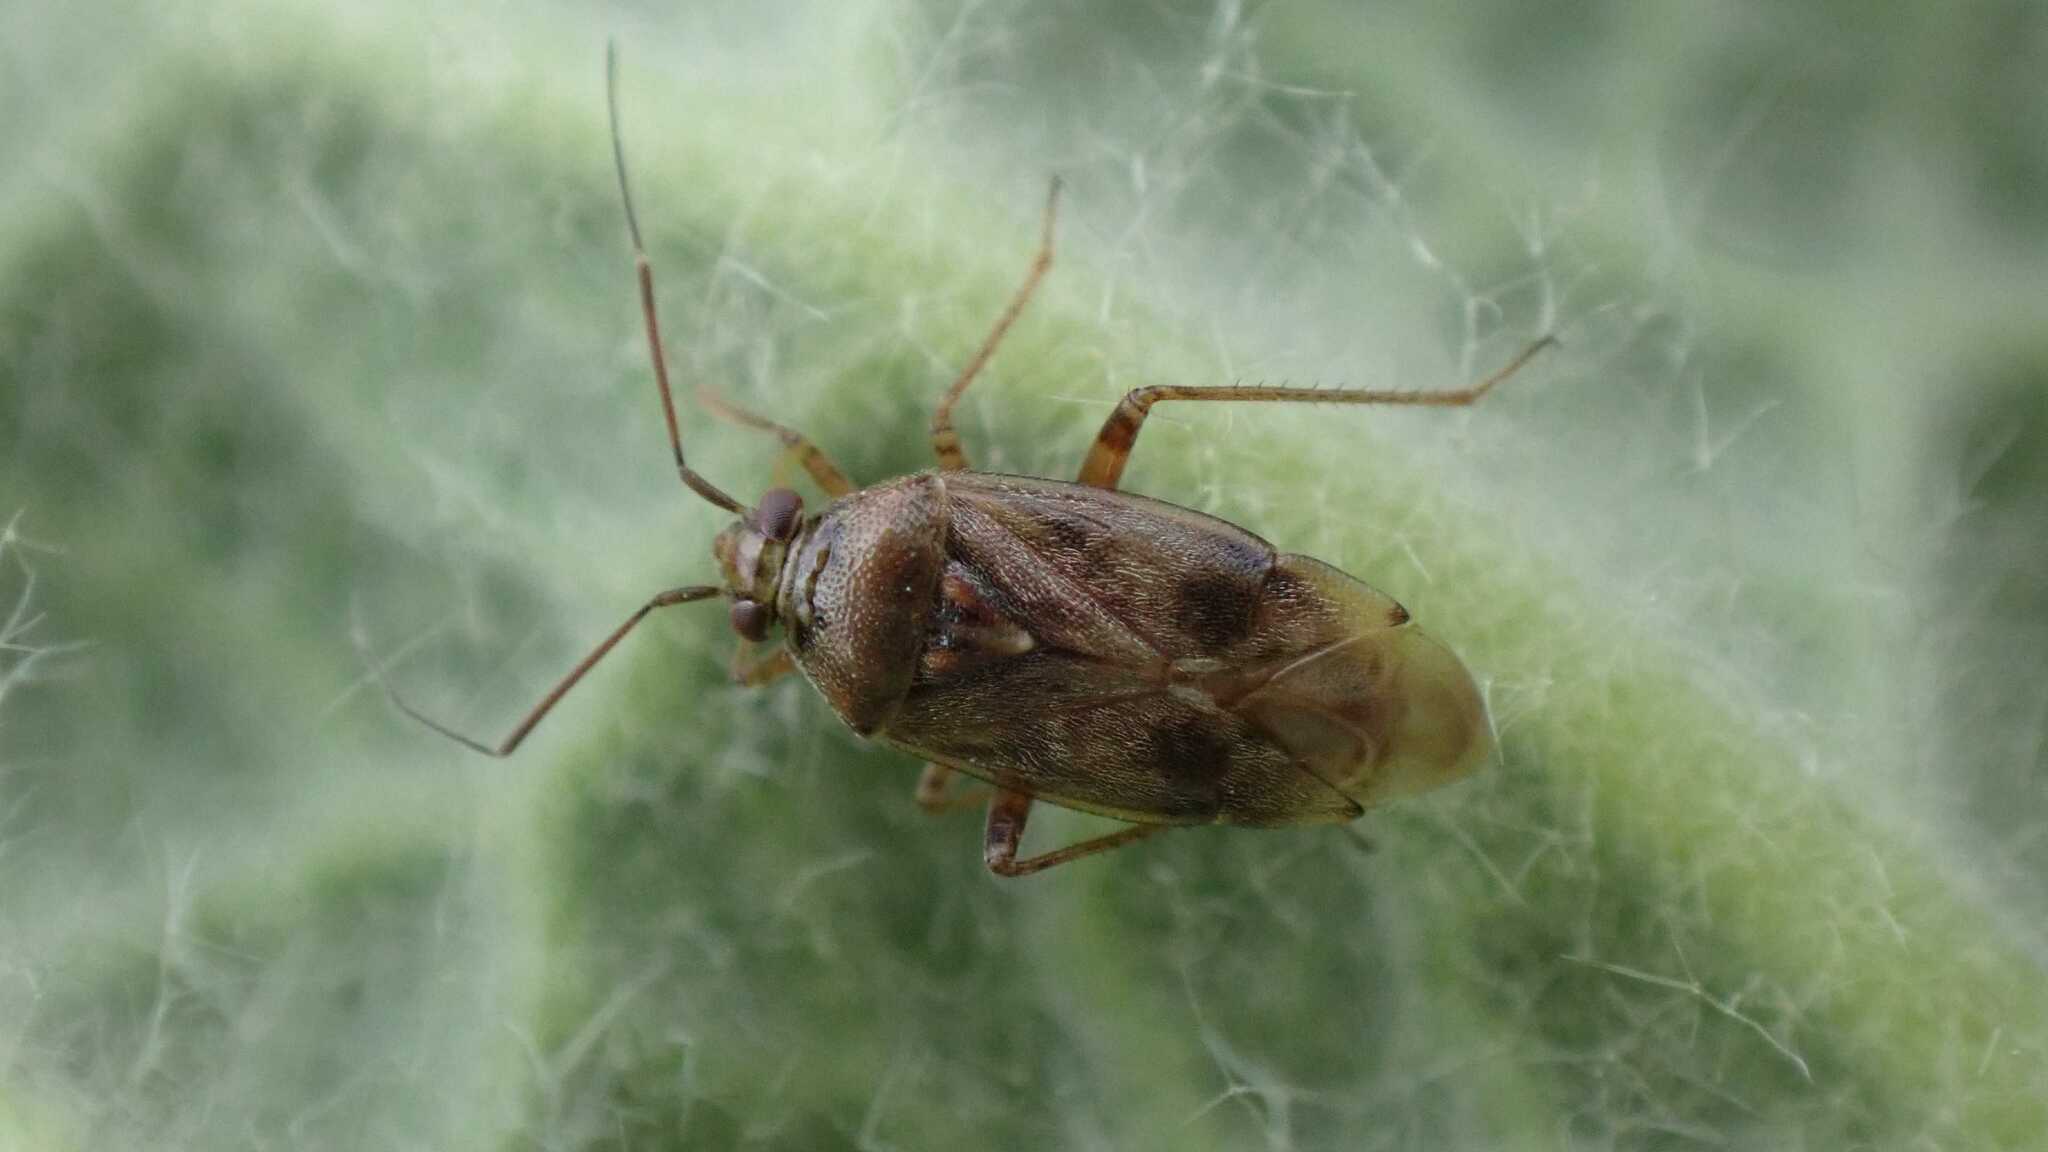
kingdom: Animalia
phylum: Arthropoda
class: Insecta
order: Hemiptera
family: Miridae
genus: Lygus
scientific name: Lygus rugulipennis
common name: European tarnished plant bug
